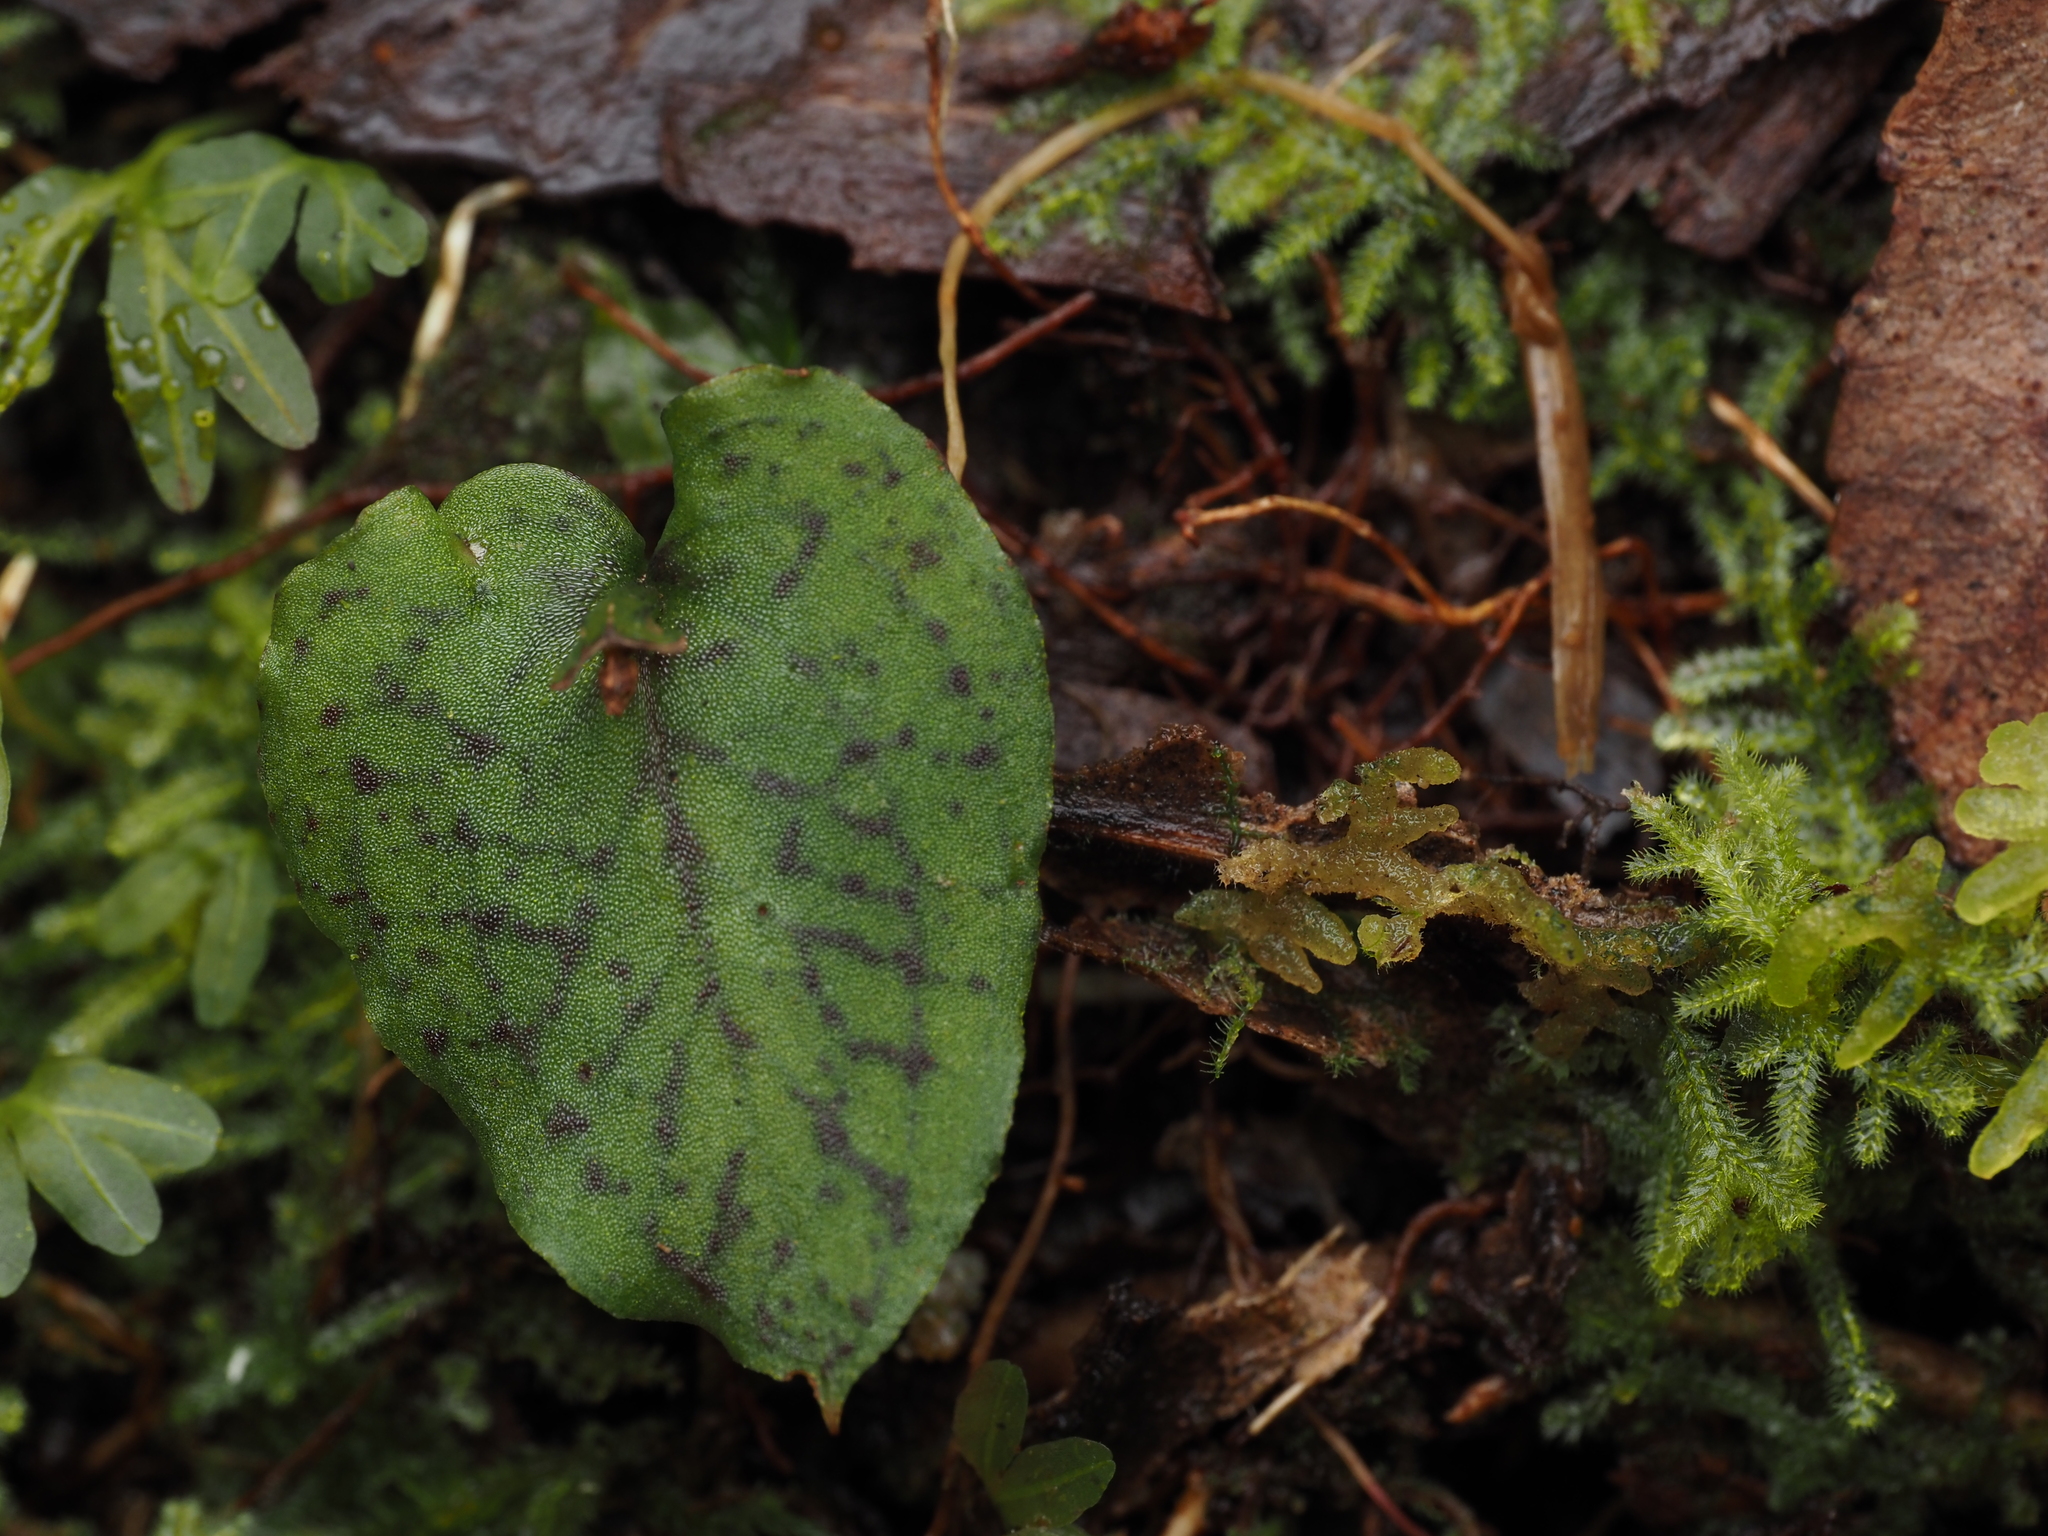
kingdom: Plantae
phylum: Tracheophyta
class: Liliopsida
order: Asparagales
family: Orchidaceae
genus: Corybas
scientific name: Corybas oblongus
